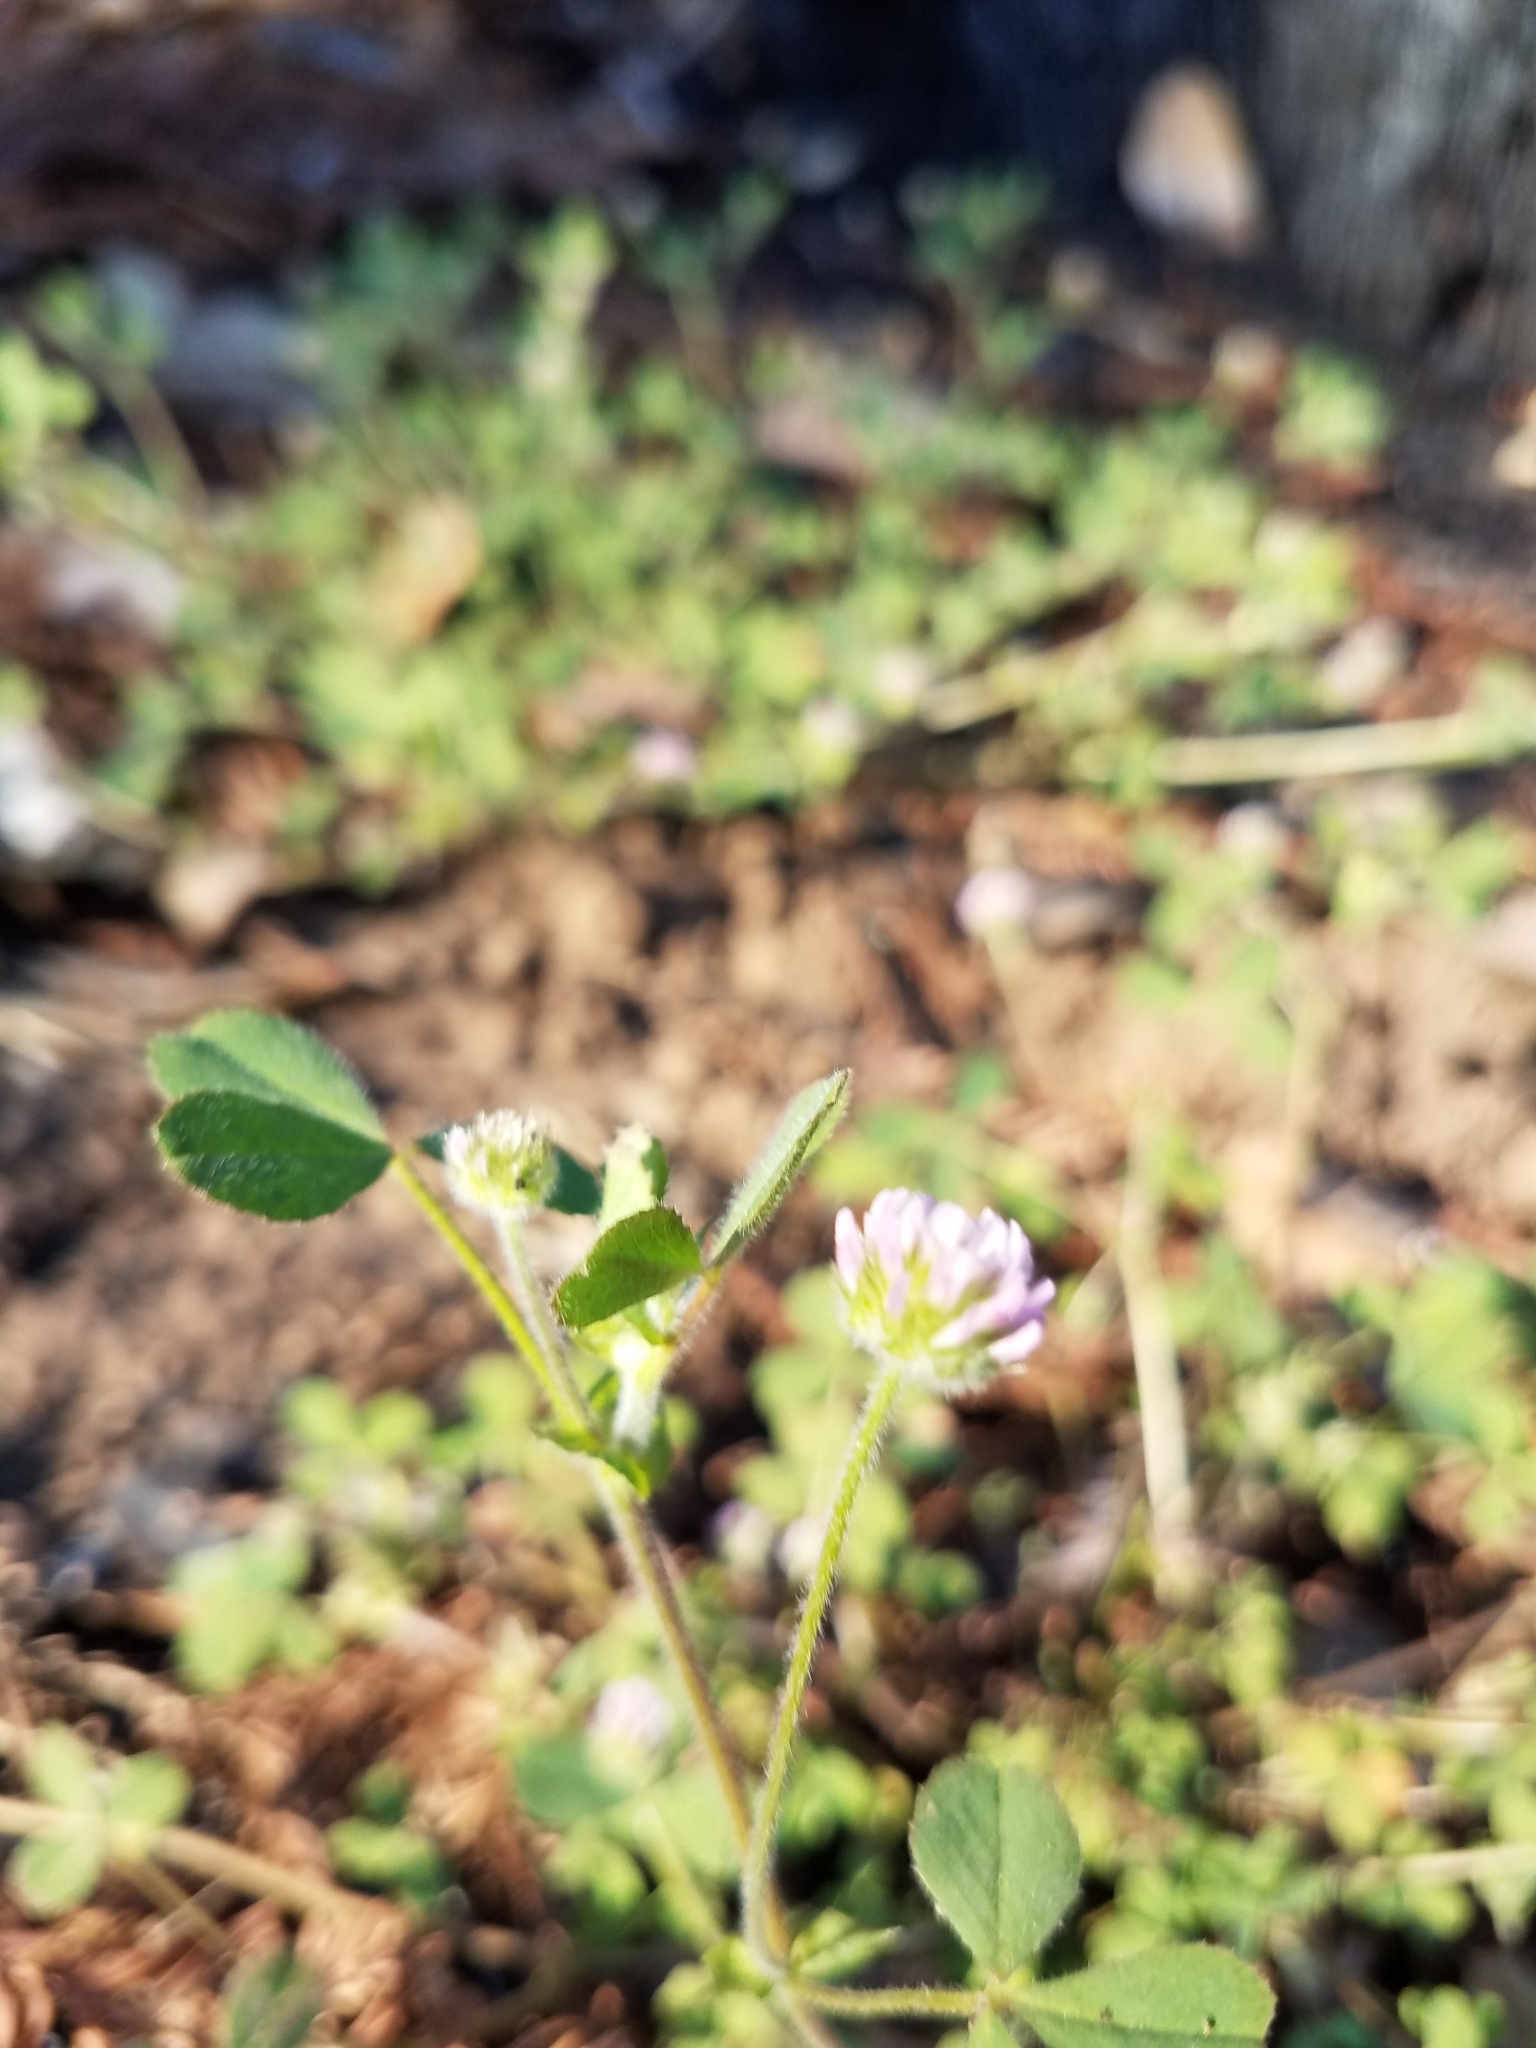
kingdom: Plantae
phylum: Tracheophyta
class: Magnoliopsida
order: Fabales
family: Fabaceae
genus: Trifolium
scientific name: Trifolium microcephalum
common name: Maiden clover
